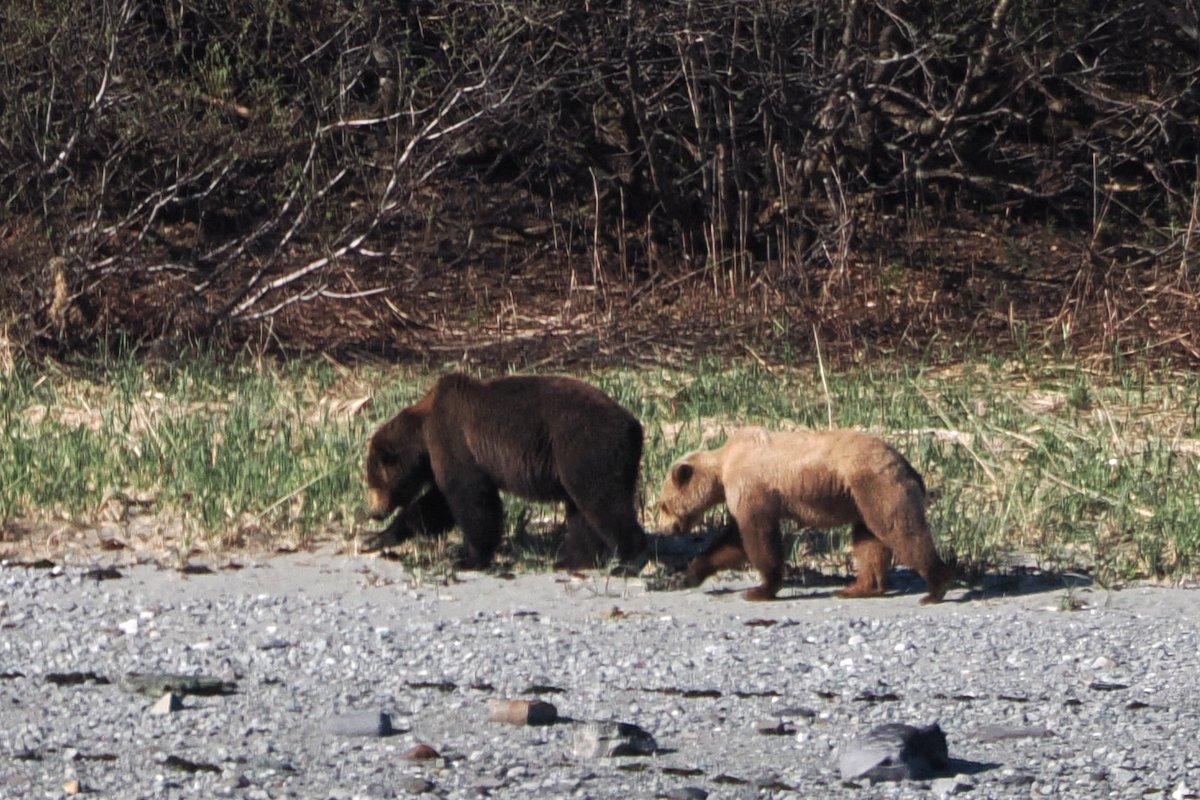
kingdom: Animalia
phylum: Chordata
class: Mammalia
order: Carnivora
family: Ursidae
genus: Ursus
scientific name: Ursus arctos
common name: Brown bear
